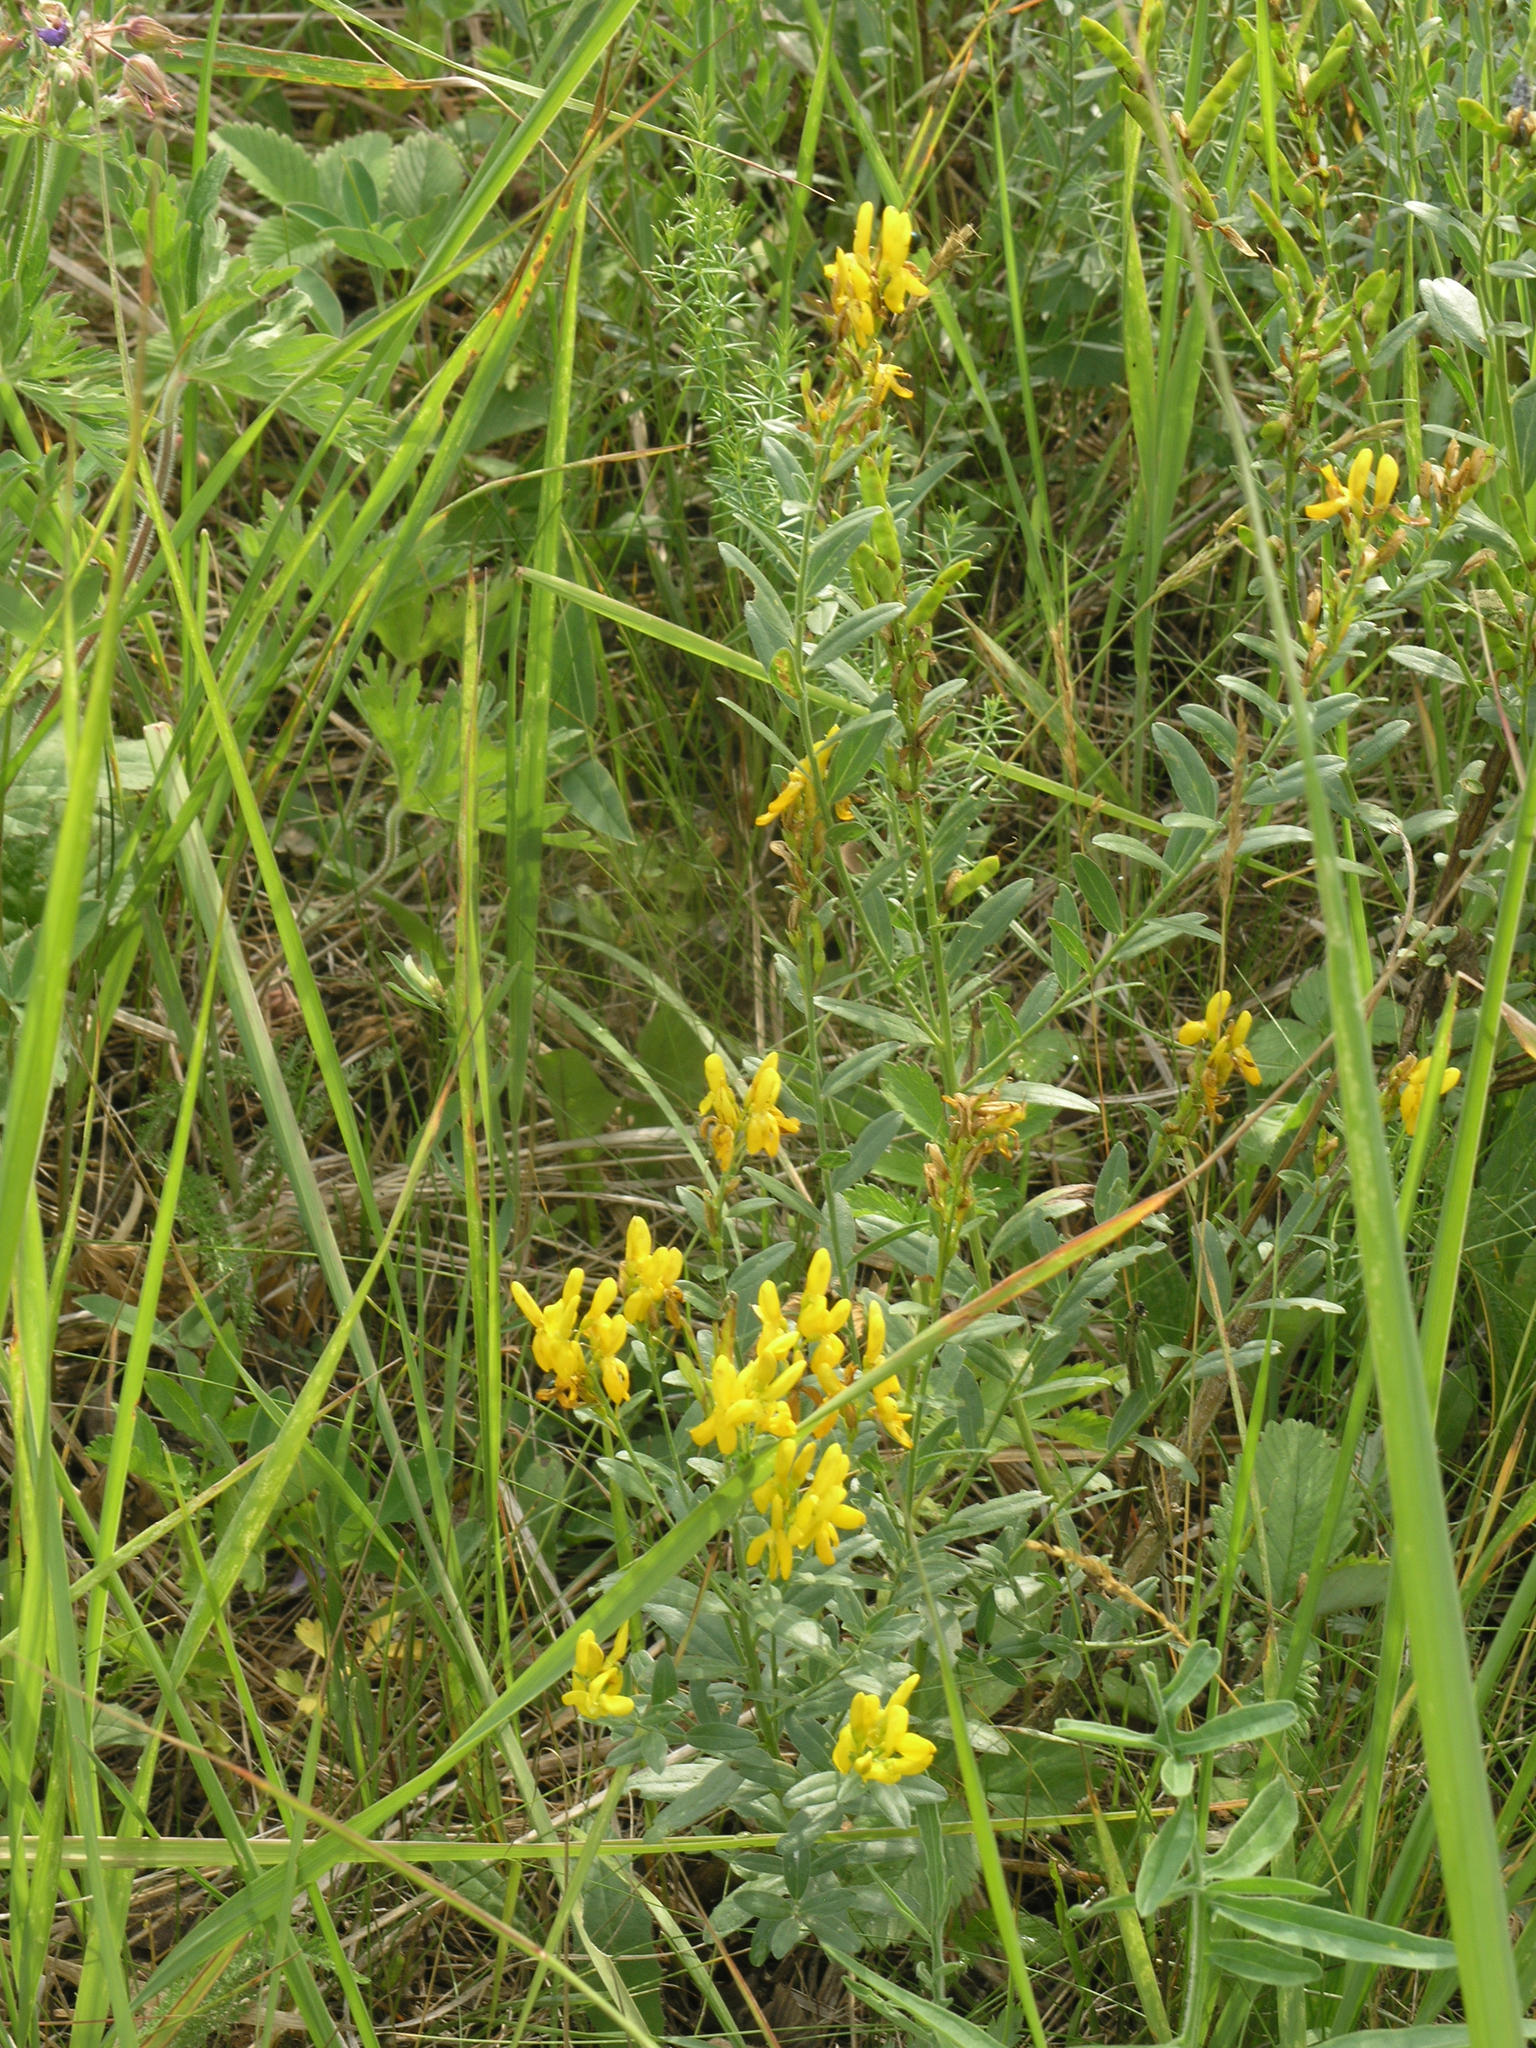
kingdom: Plantae
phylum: Tracheophyta
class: Magnoliopsida
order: Fabales
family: Fabaceae
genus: Genista
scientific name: Genista tinctoria
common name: Dyer's greenweed
